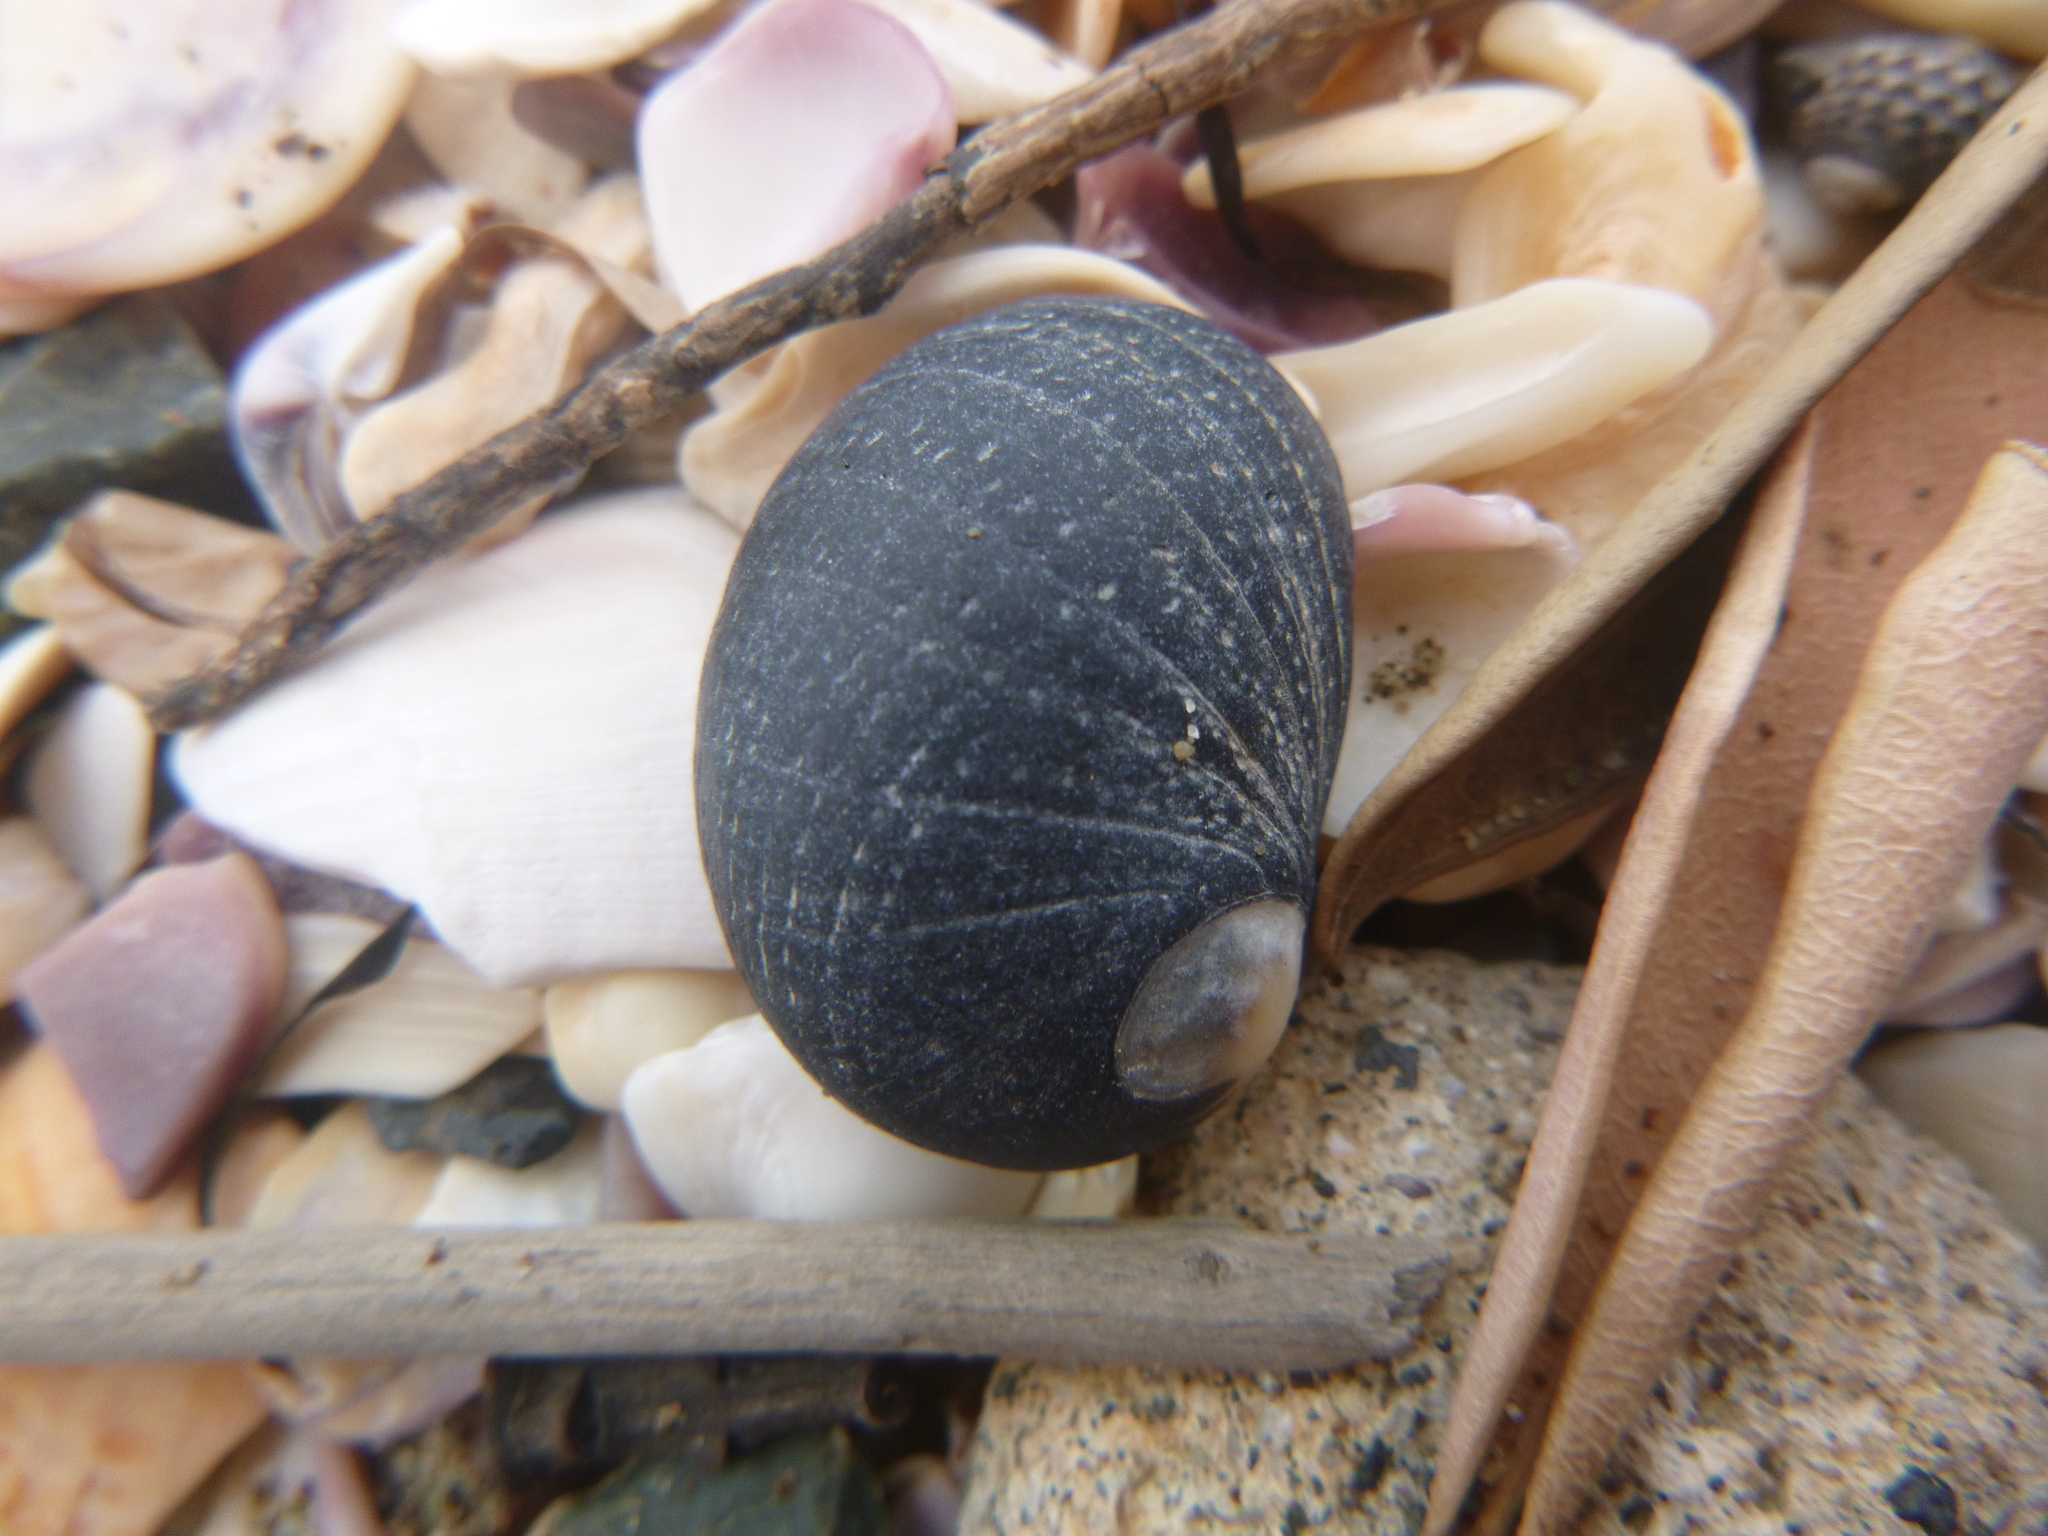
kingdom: Animalia
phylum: Mollusca
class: Gastropoda
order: Cycloneritida
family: Neritidae
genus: Nerita
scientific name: Nerita melanotragus
